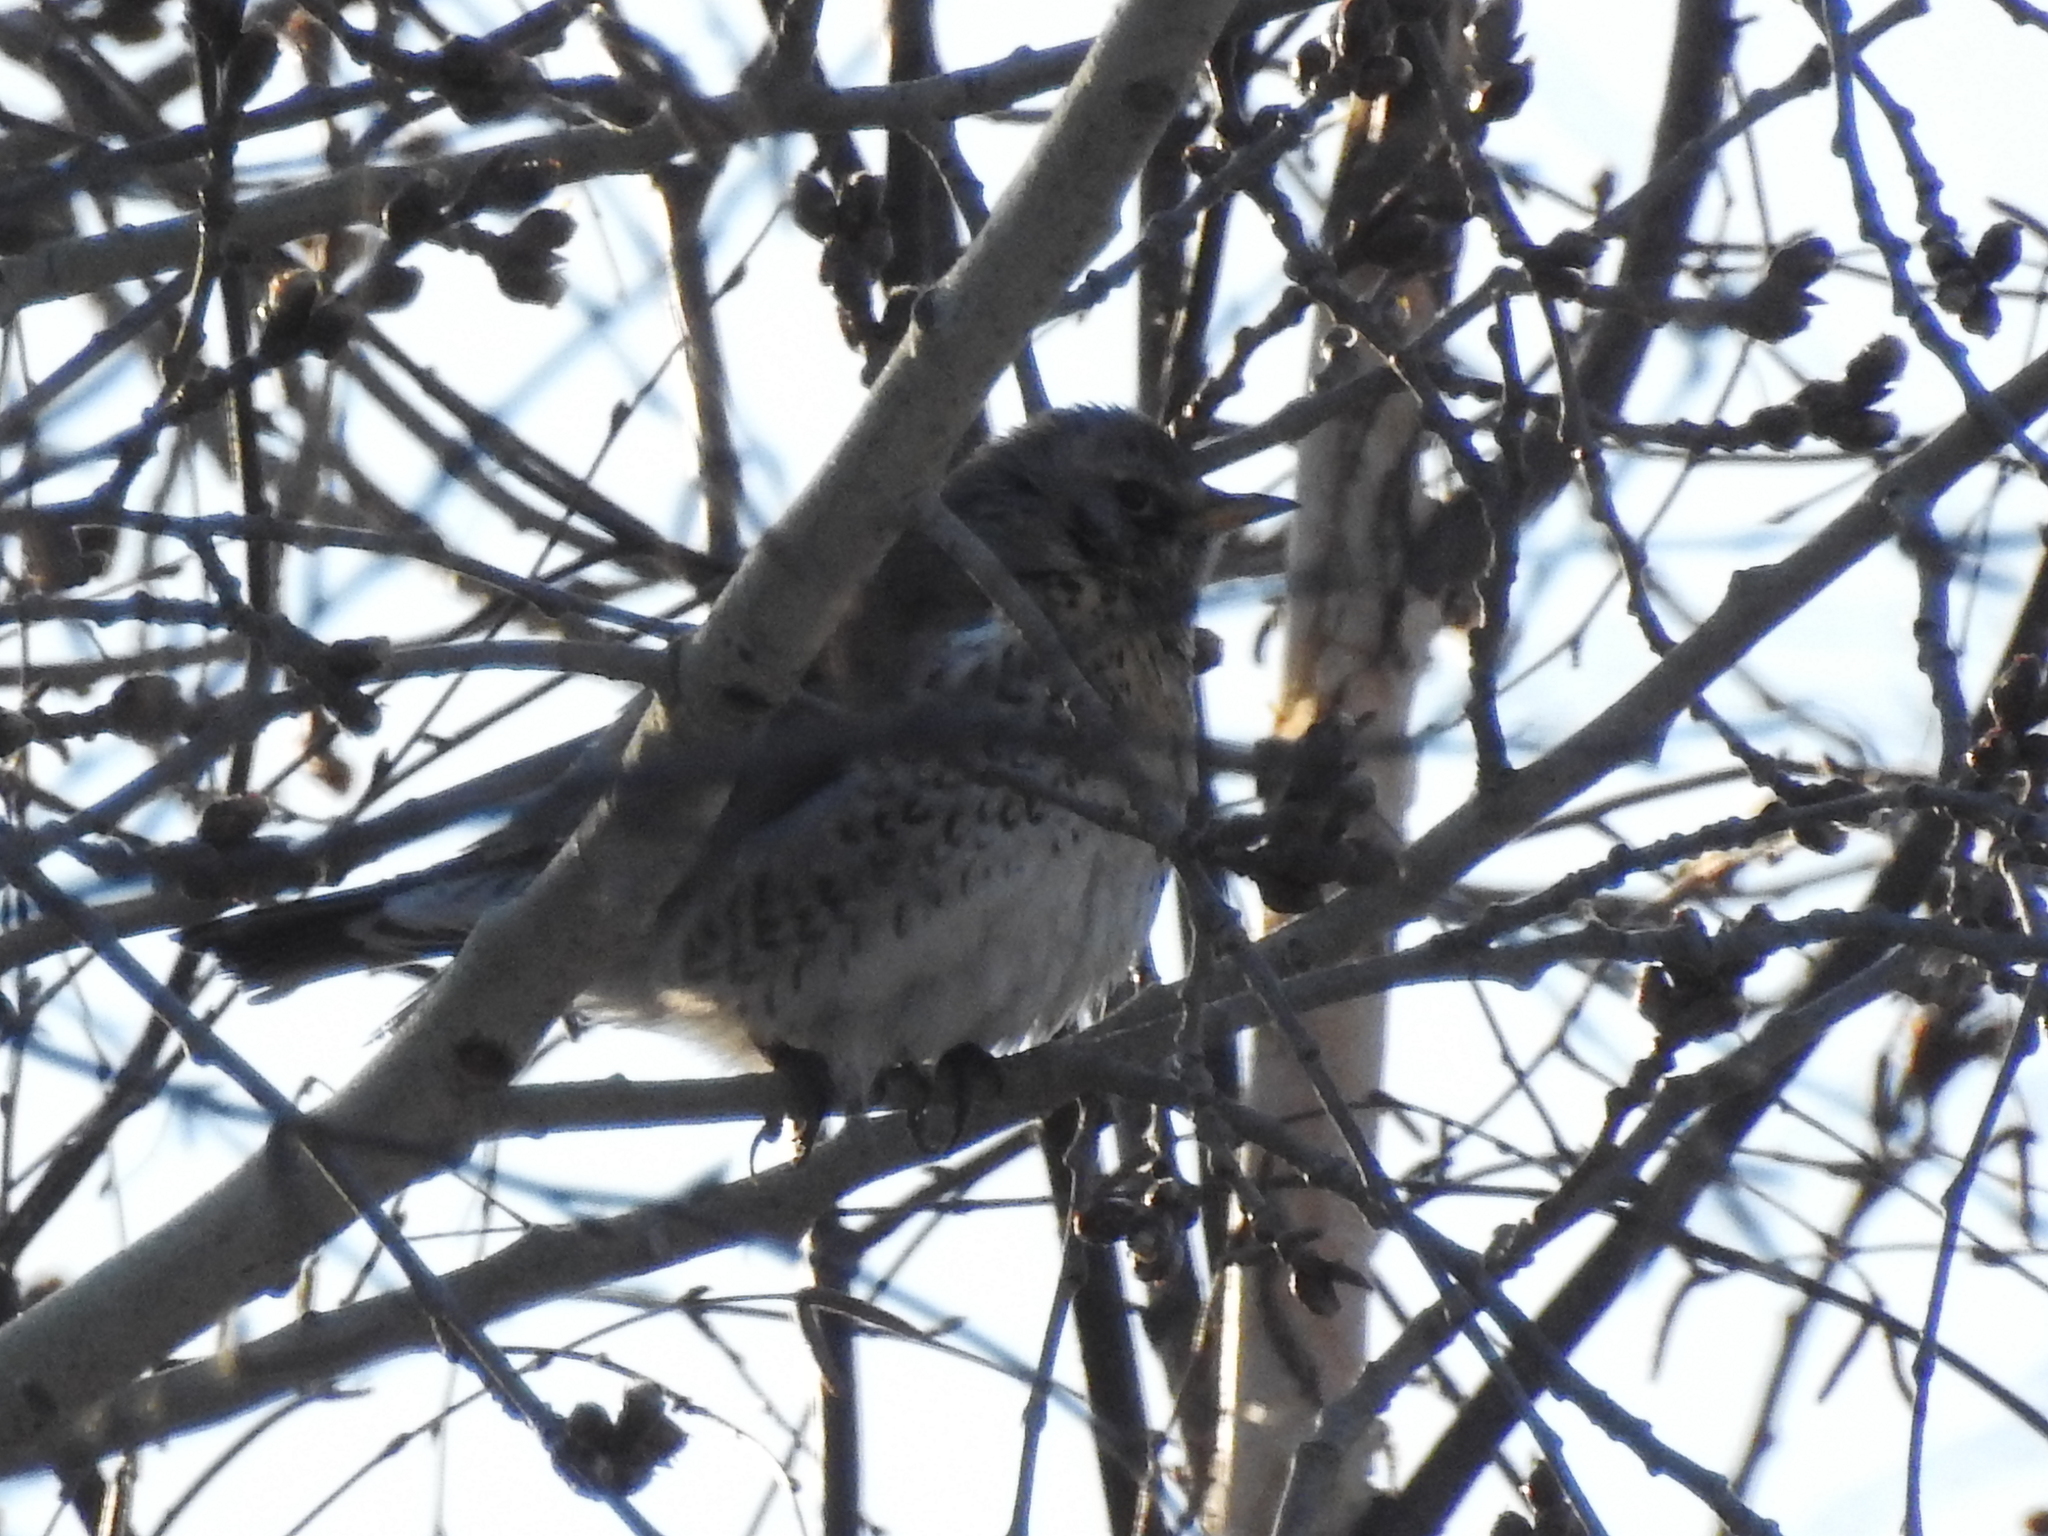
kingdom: Animalia
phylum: Chordata
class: Aves
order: Passeriformes
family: Turdidae
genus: Turdus
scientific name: Turdus pilaris
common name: Fieldfare
